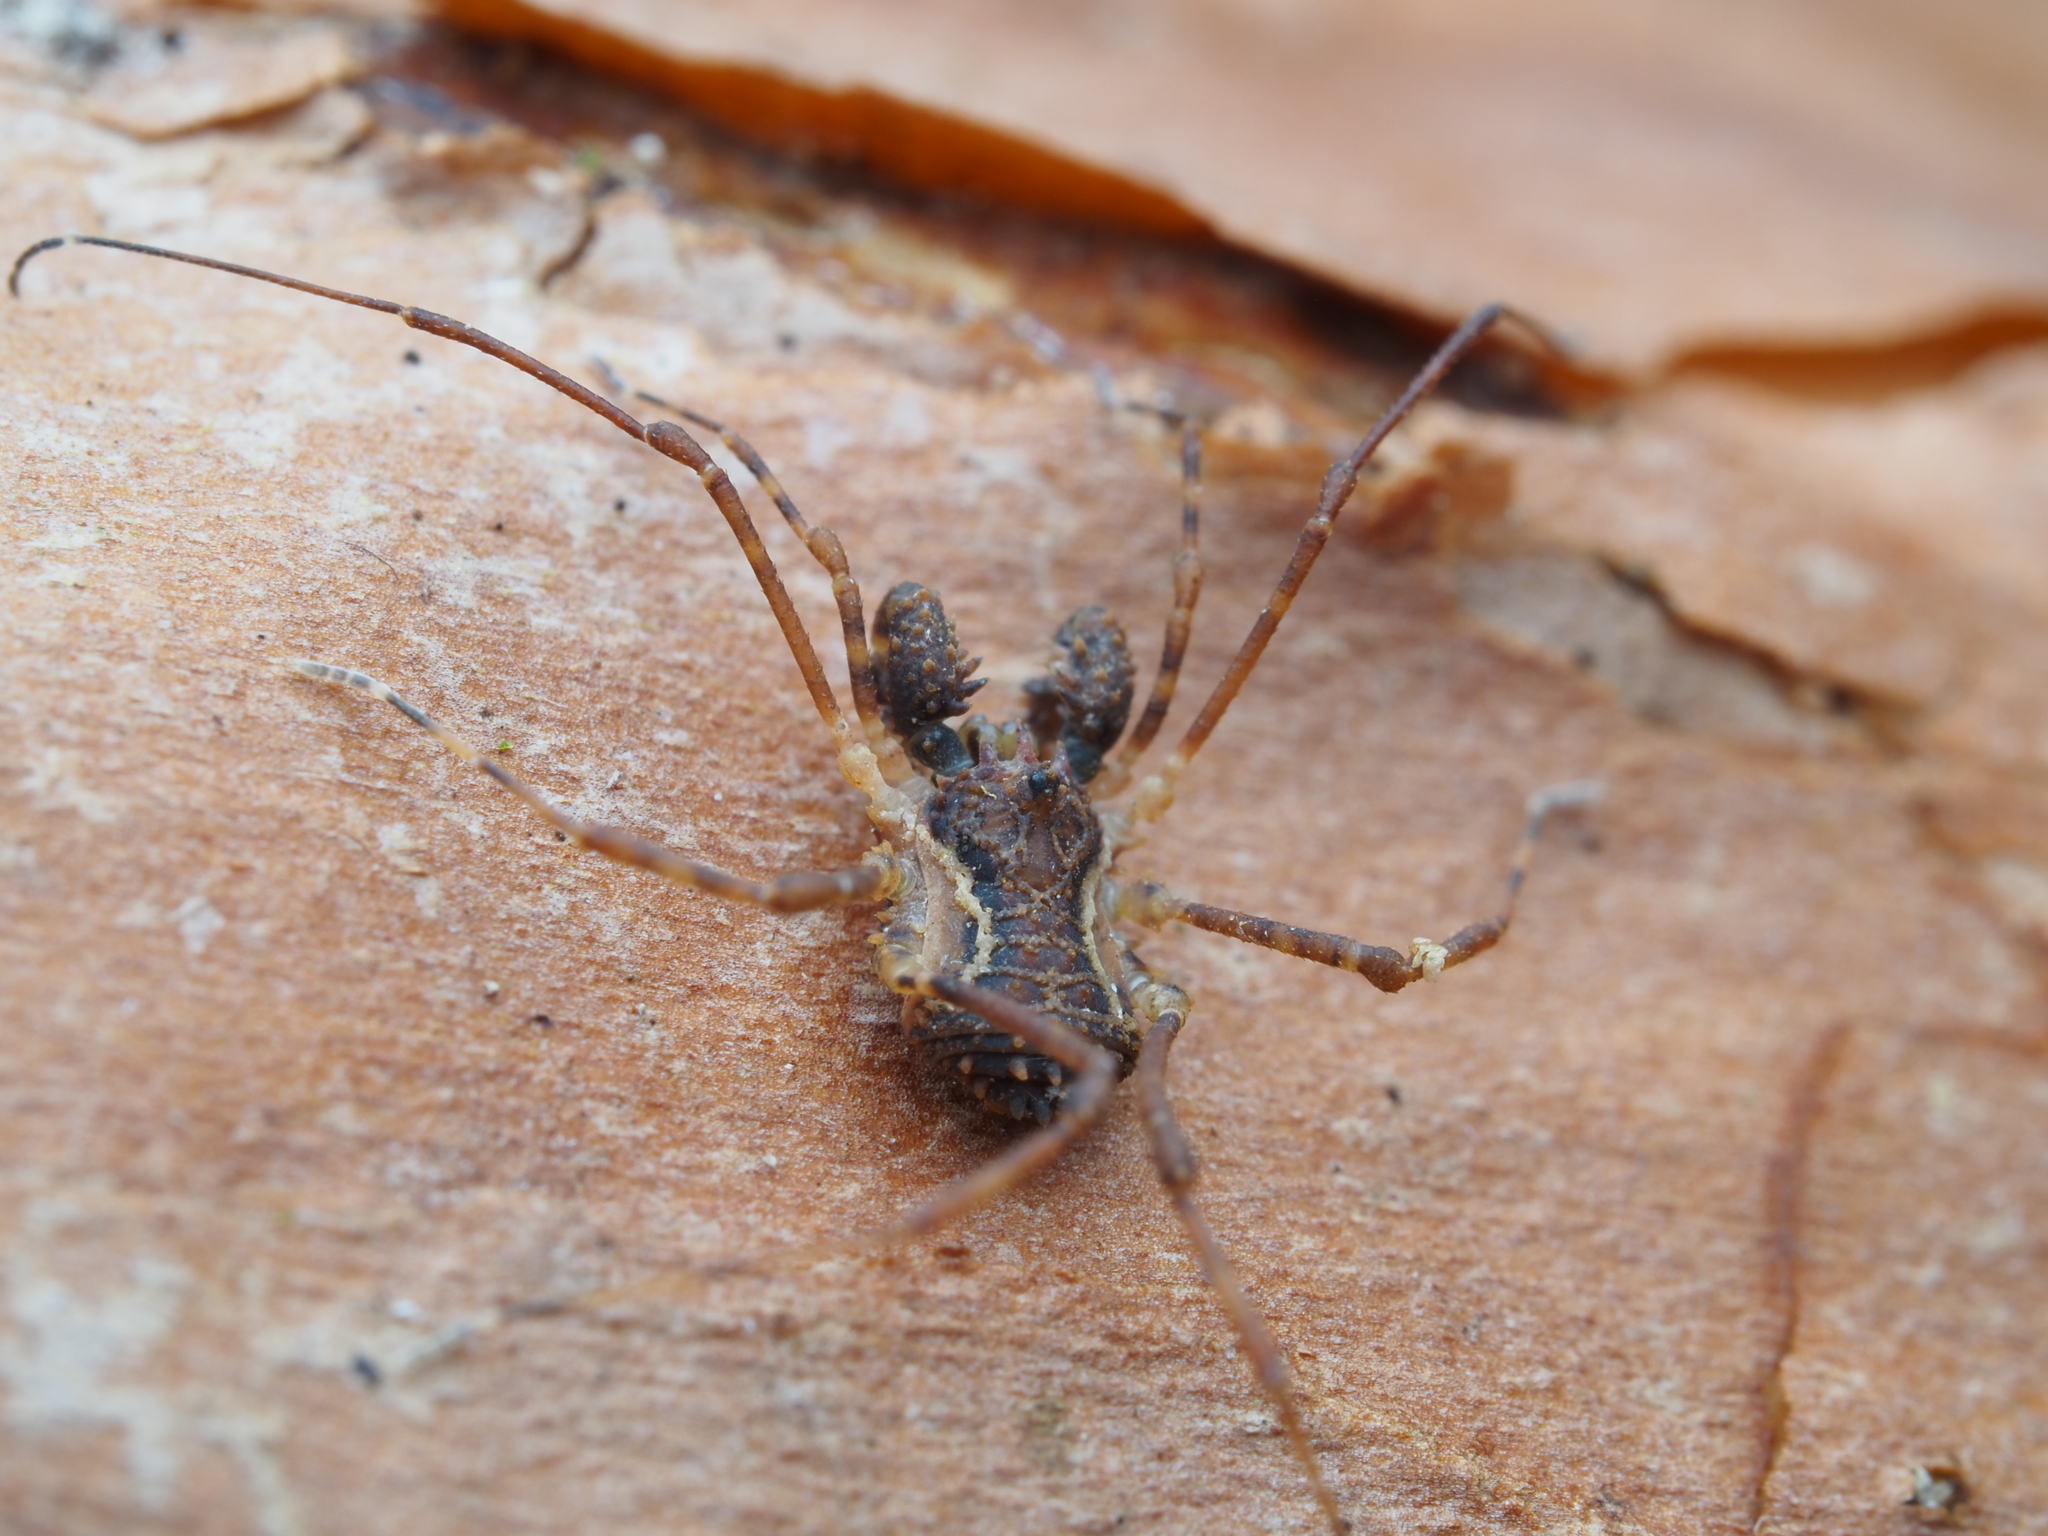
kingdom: Animalia
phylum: Arthropoda
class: Arachnida
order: Opiliones
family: Triaenonychidae
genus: Algidia
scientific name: Algidia chiltoni
